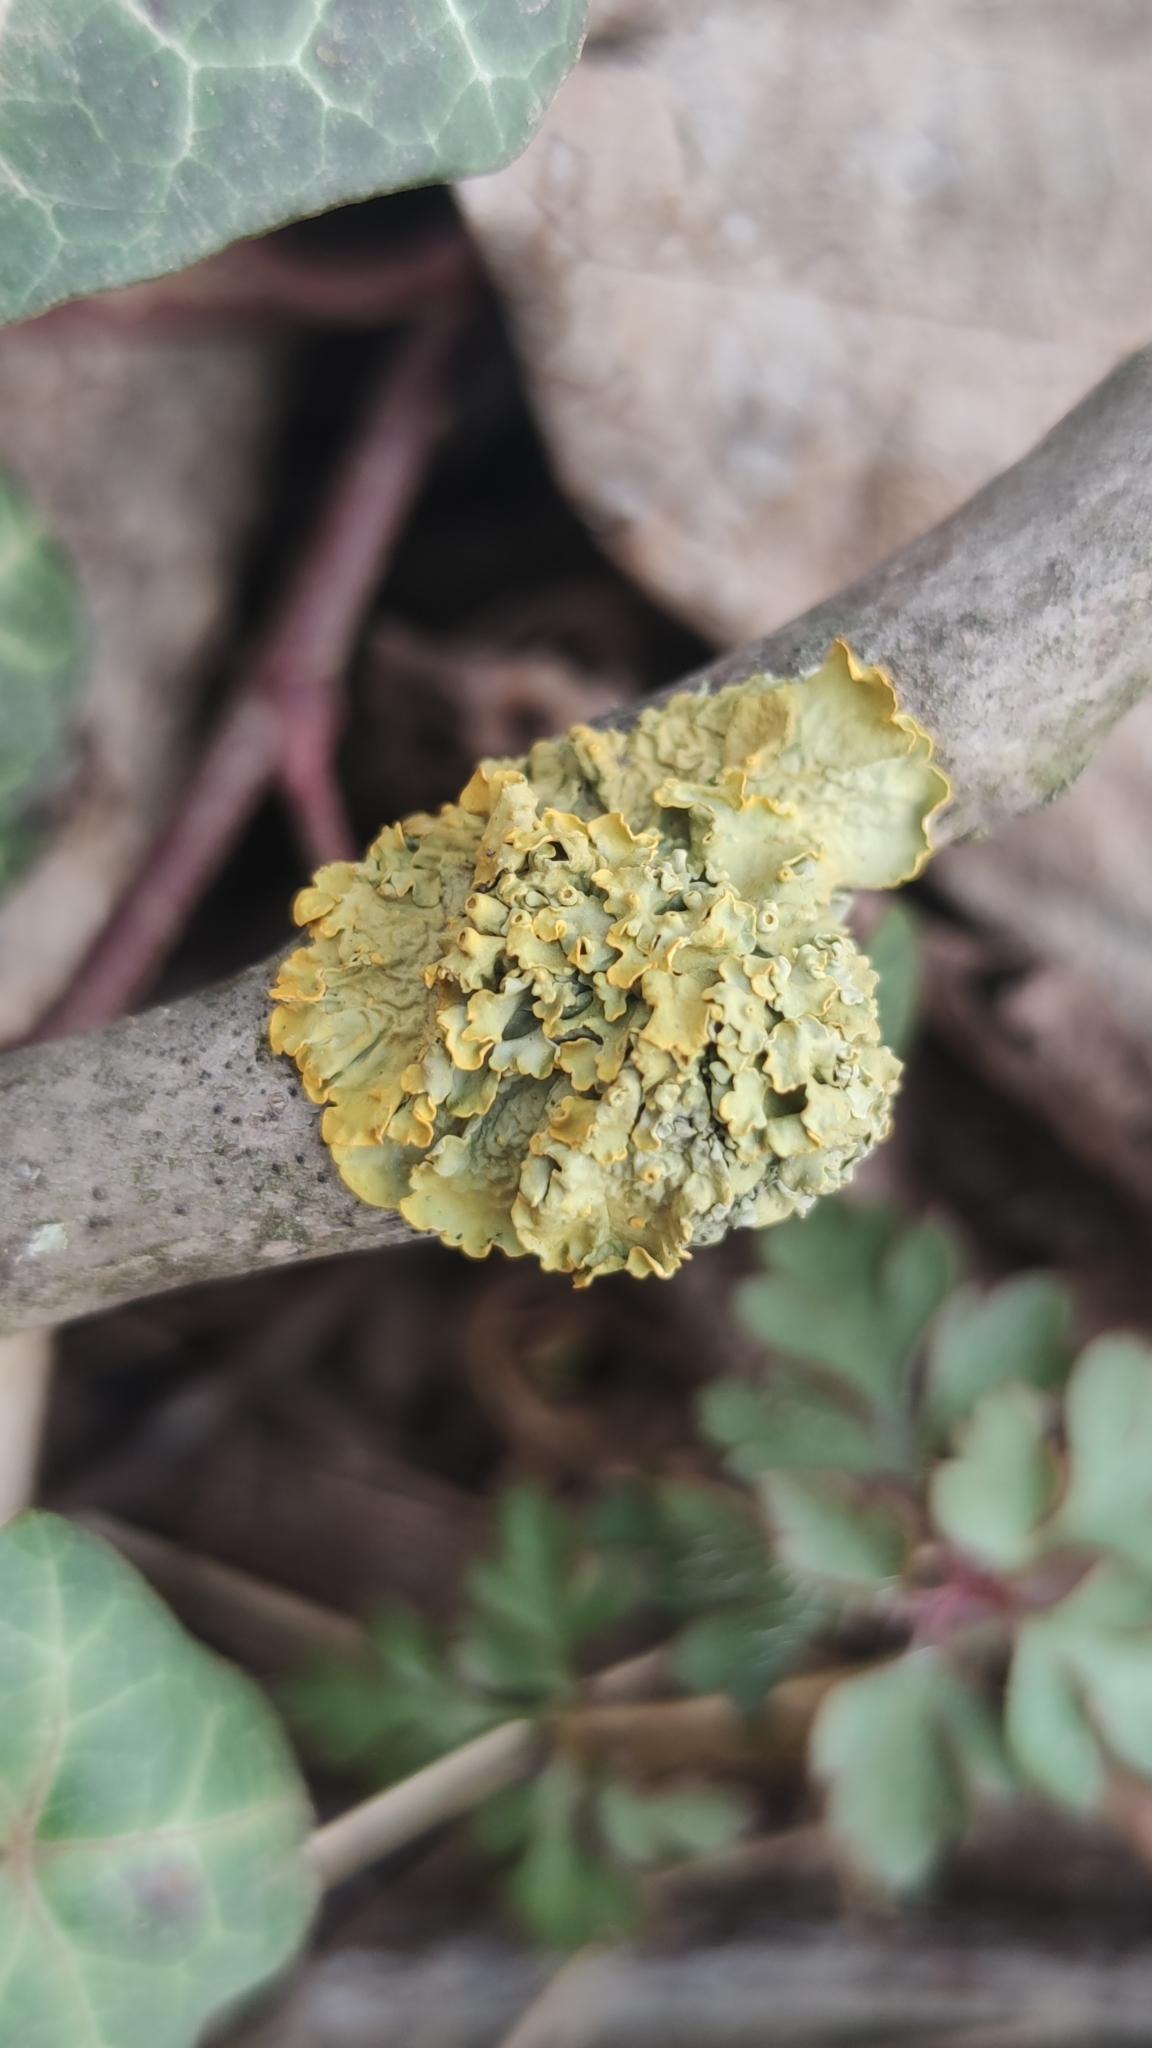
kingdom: Fungi
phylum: Ascomycota
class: Lecanoromycetes
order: Teloschistales
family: Teloschistaceae
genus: Xanthoria
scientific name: Xanthoria parietina
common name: Common orange lichen
